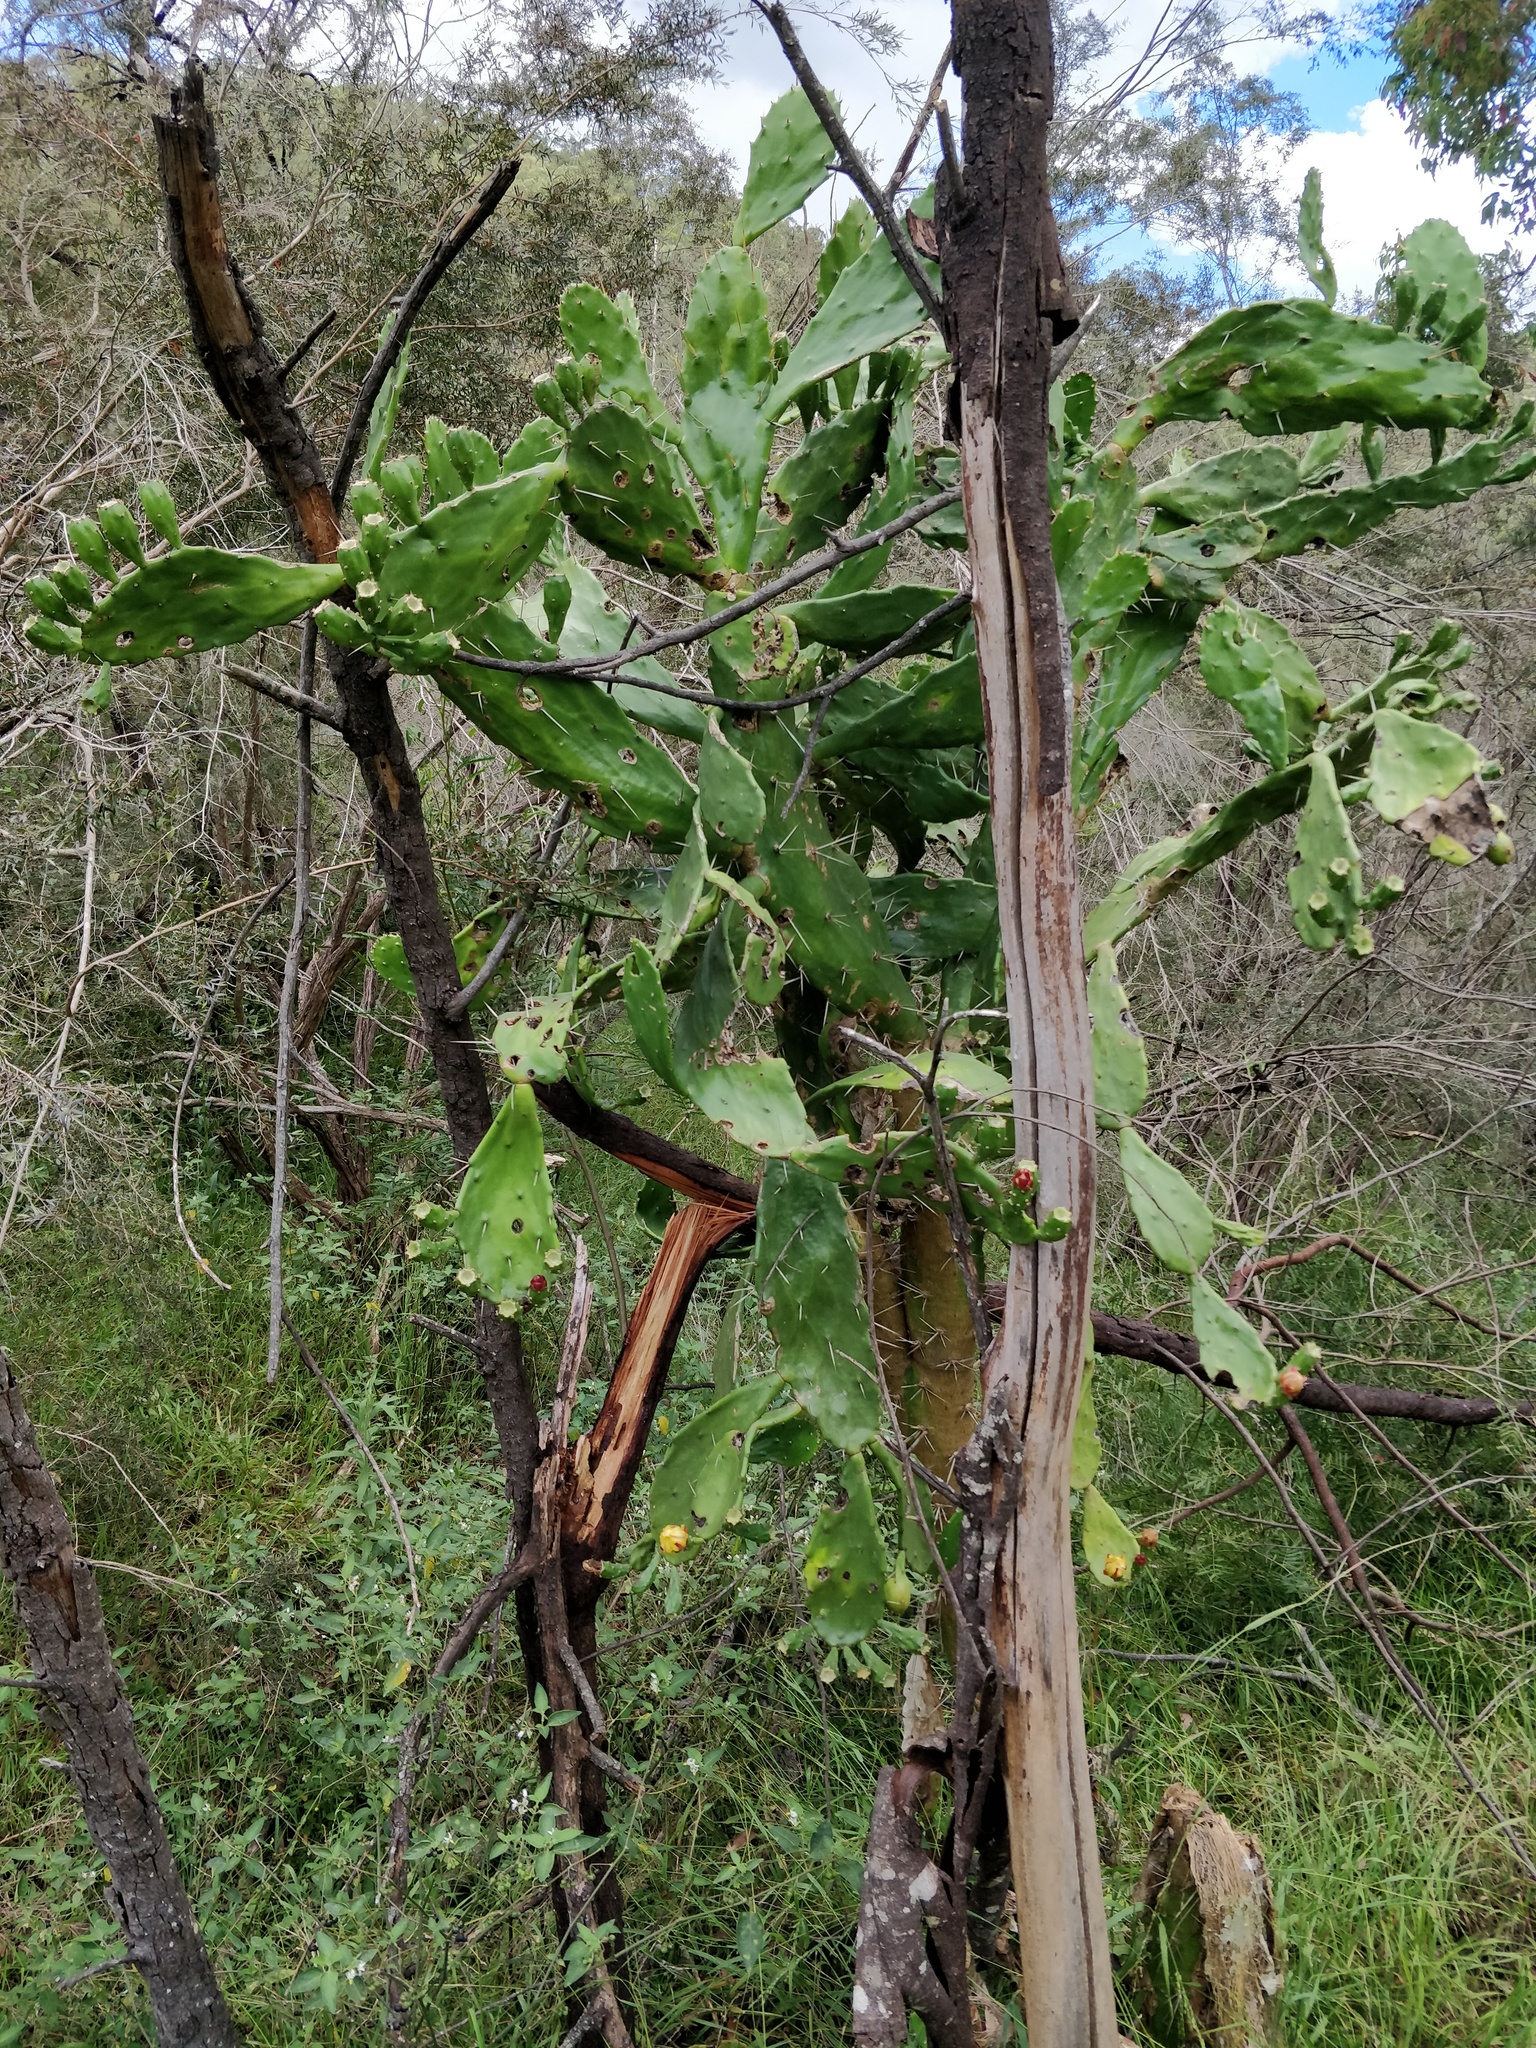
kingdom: Plantae
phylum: Tracheophyta
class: Magnoliopsida
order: Caryophyllales
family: Cactaceae
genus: Opuntia
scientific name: Opuntia monacantha
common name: Common pricklypear
